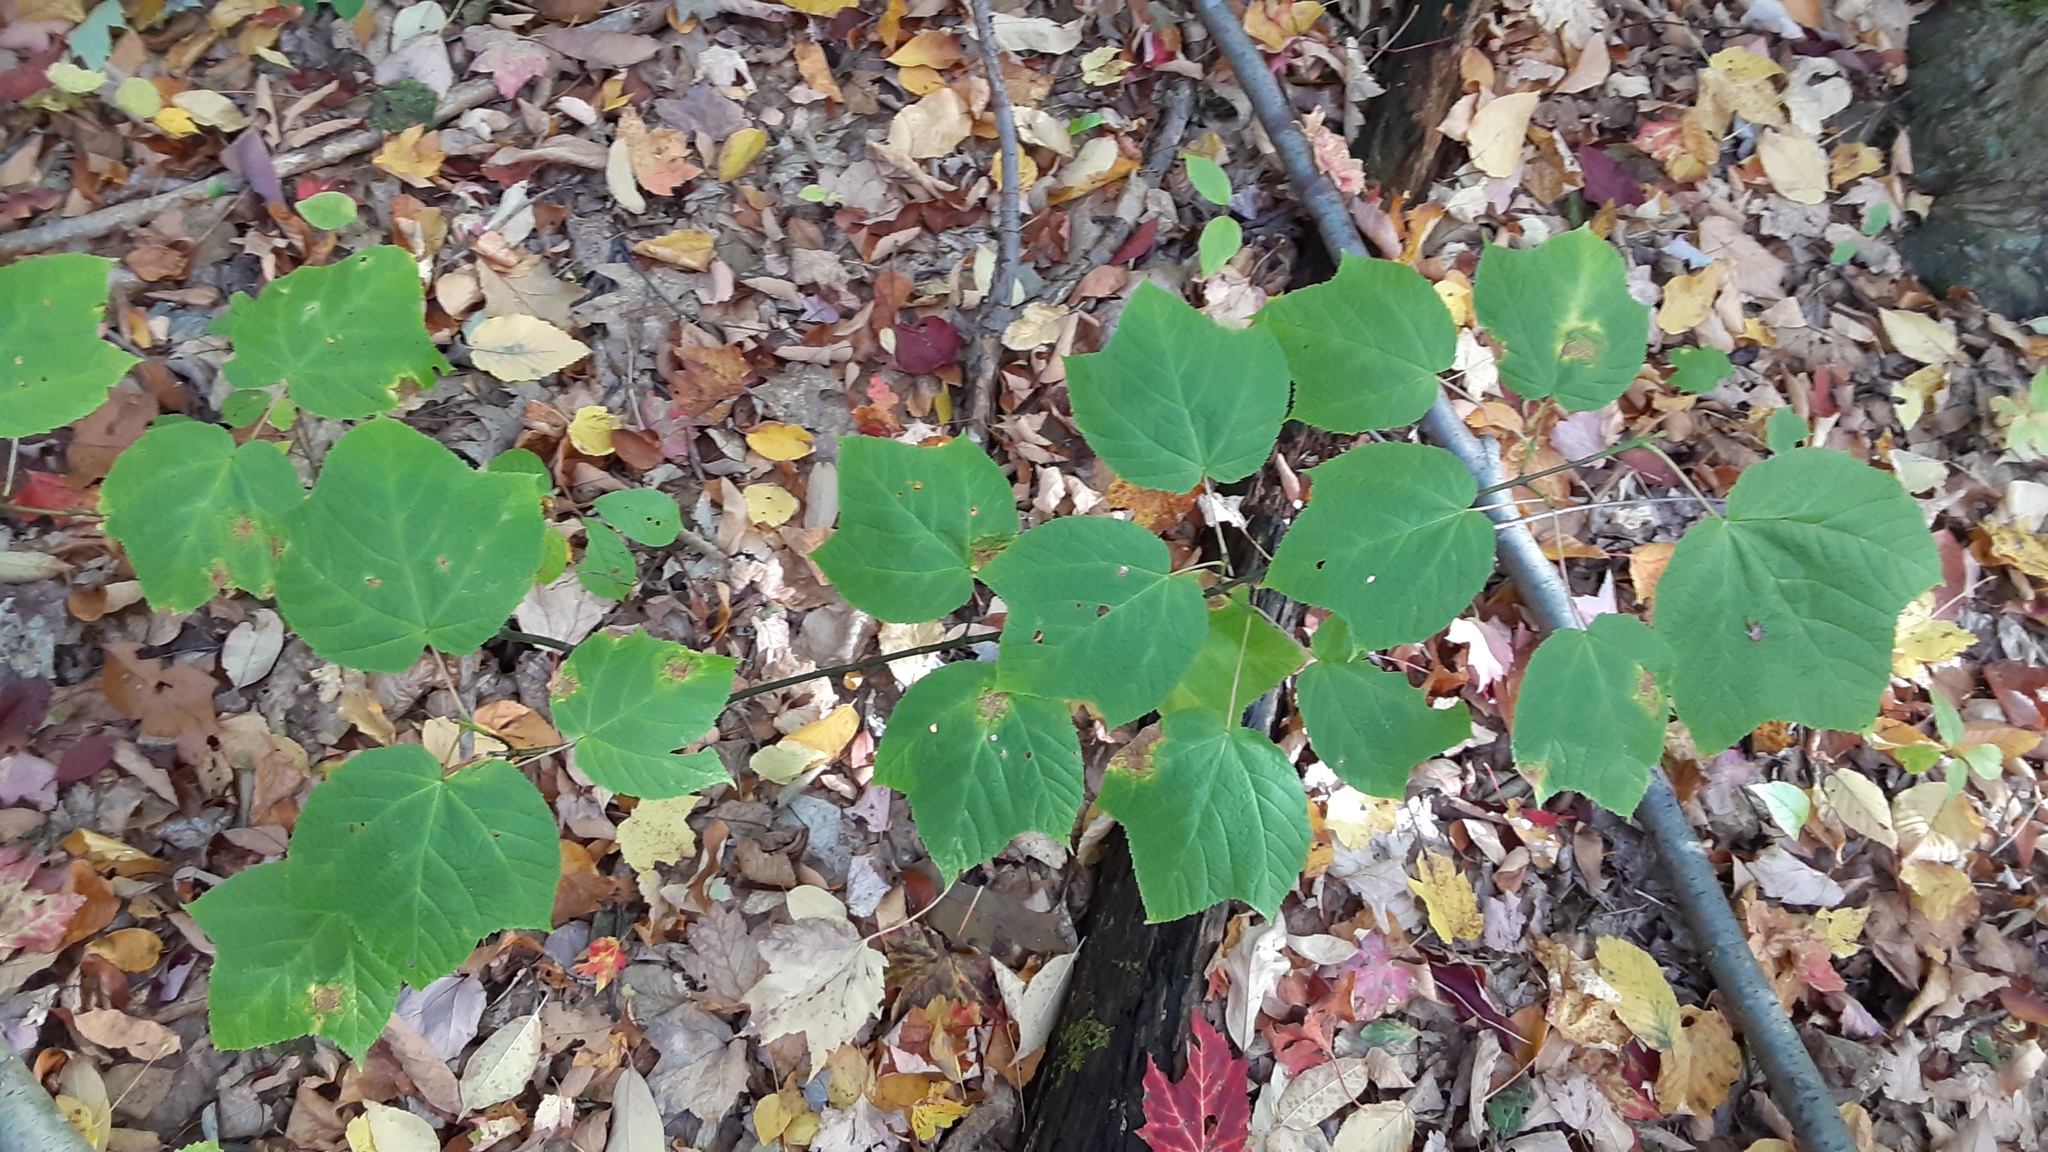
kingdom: Plantae
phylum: Tracheophyta
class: Magnoliopsida
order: Sapindales
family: Sapindaceae
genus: Acer
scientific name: Acer pensylvanicum
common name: Moosewood
